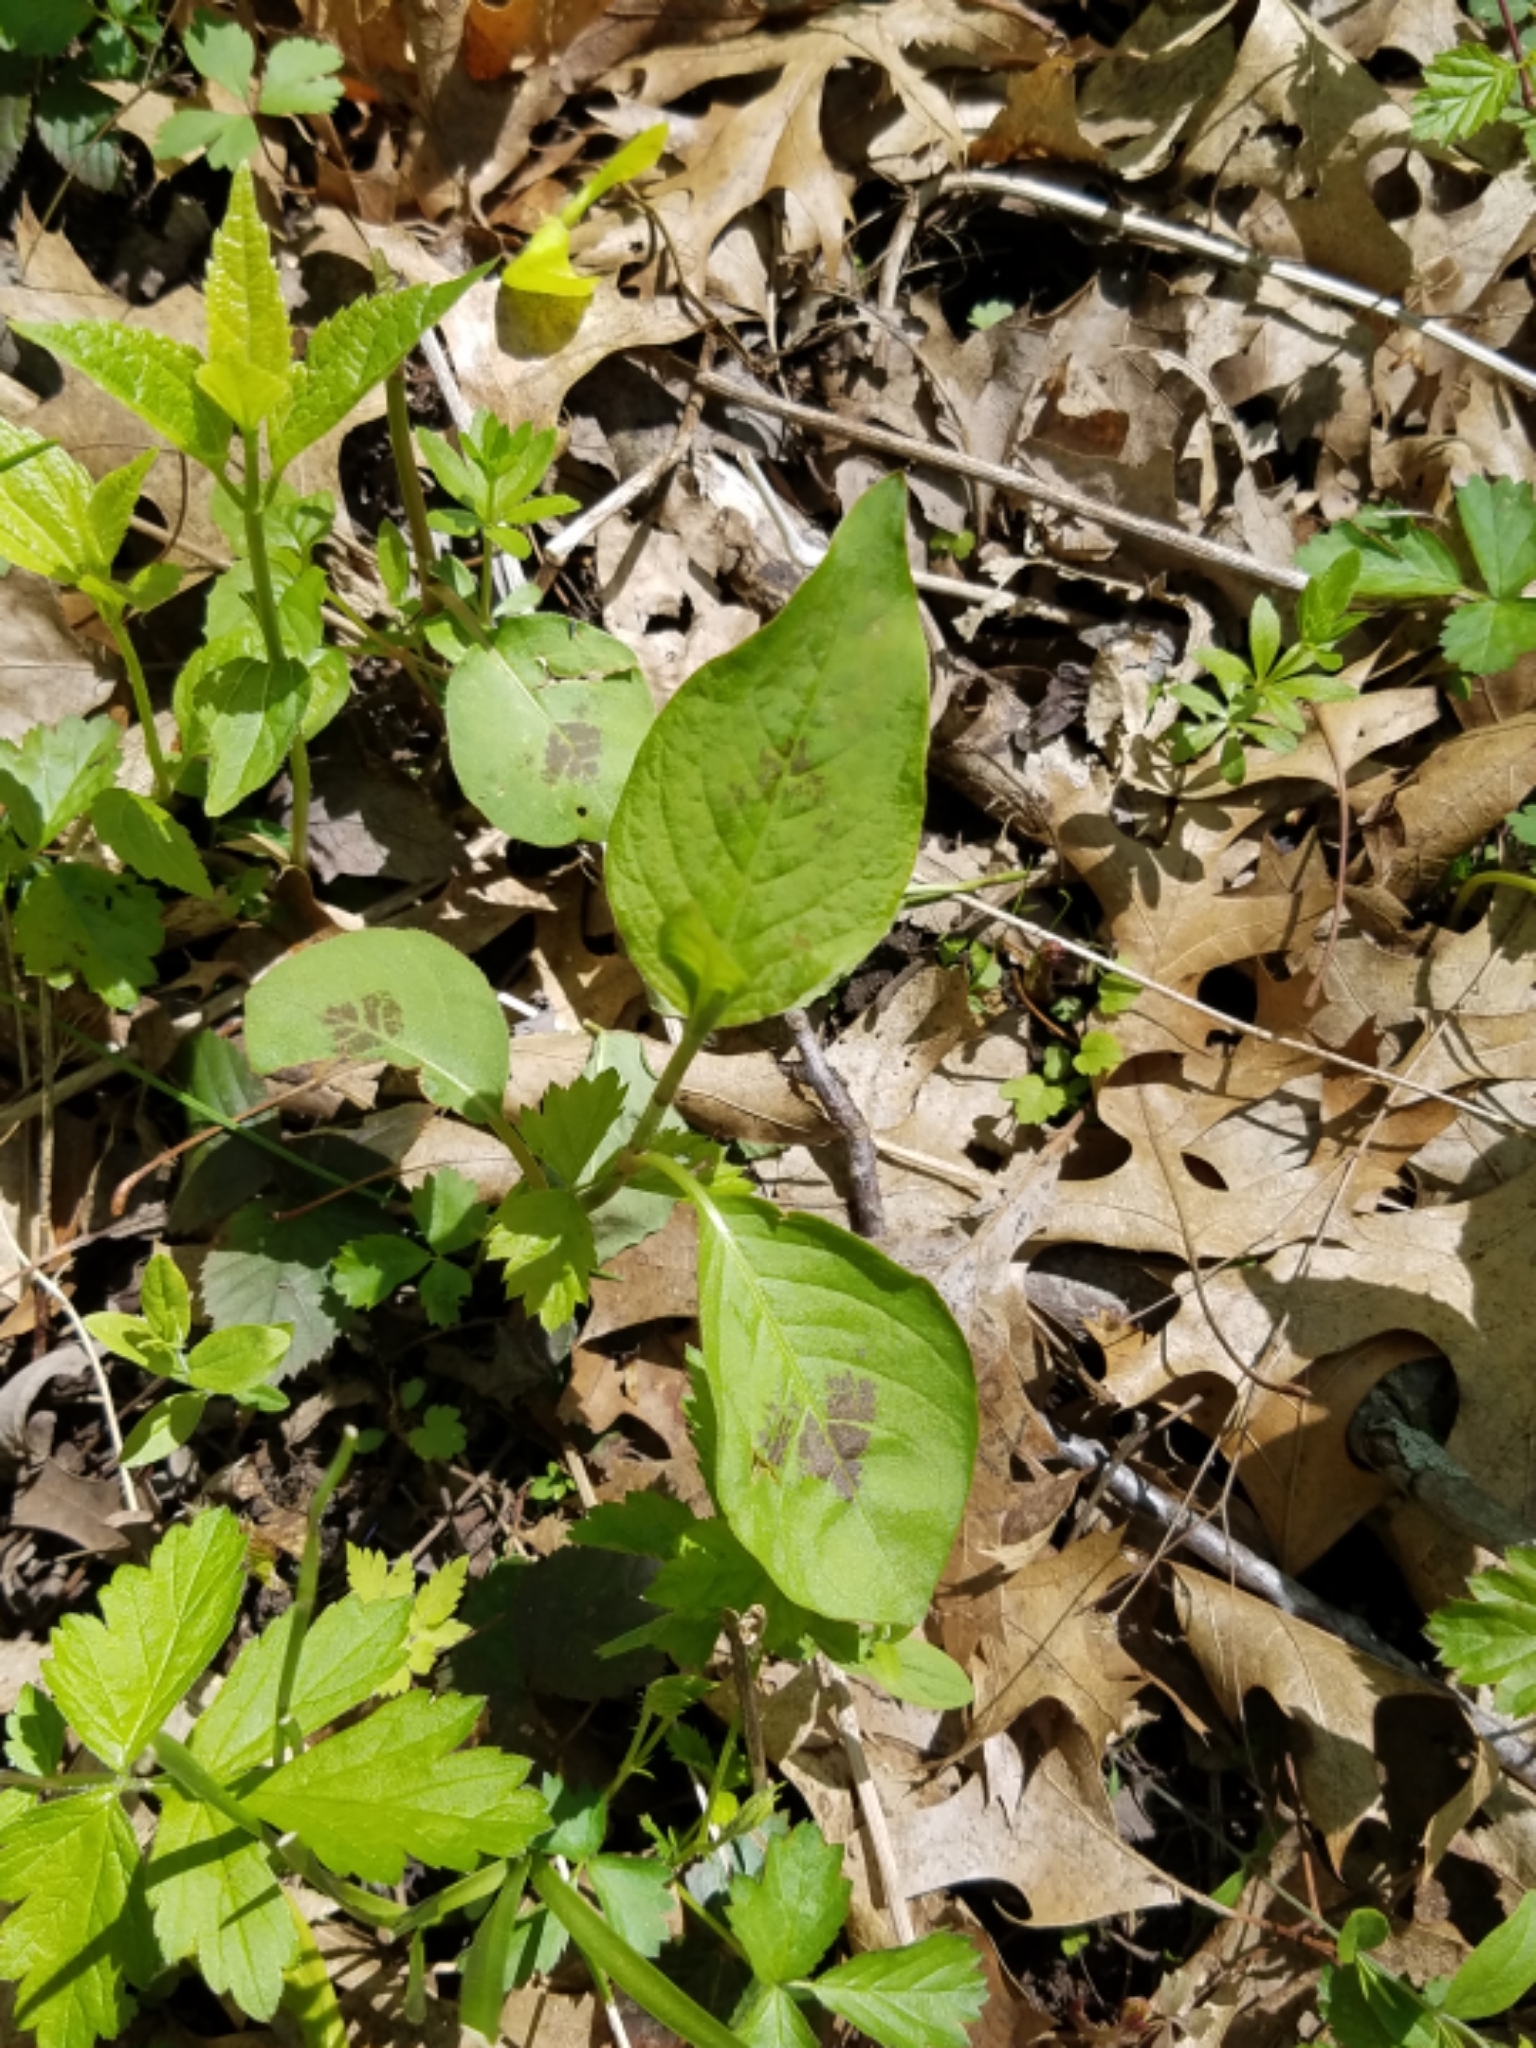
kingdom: Plantae
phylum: Tracheophyta
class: Magnoliopsida
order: Caryophyllales
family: Polygonaceae
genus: Persicaria
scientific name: Persicaria virginiana
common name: Jumpseed
